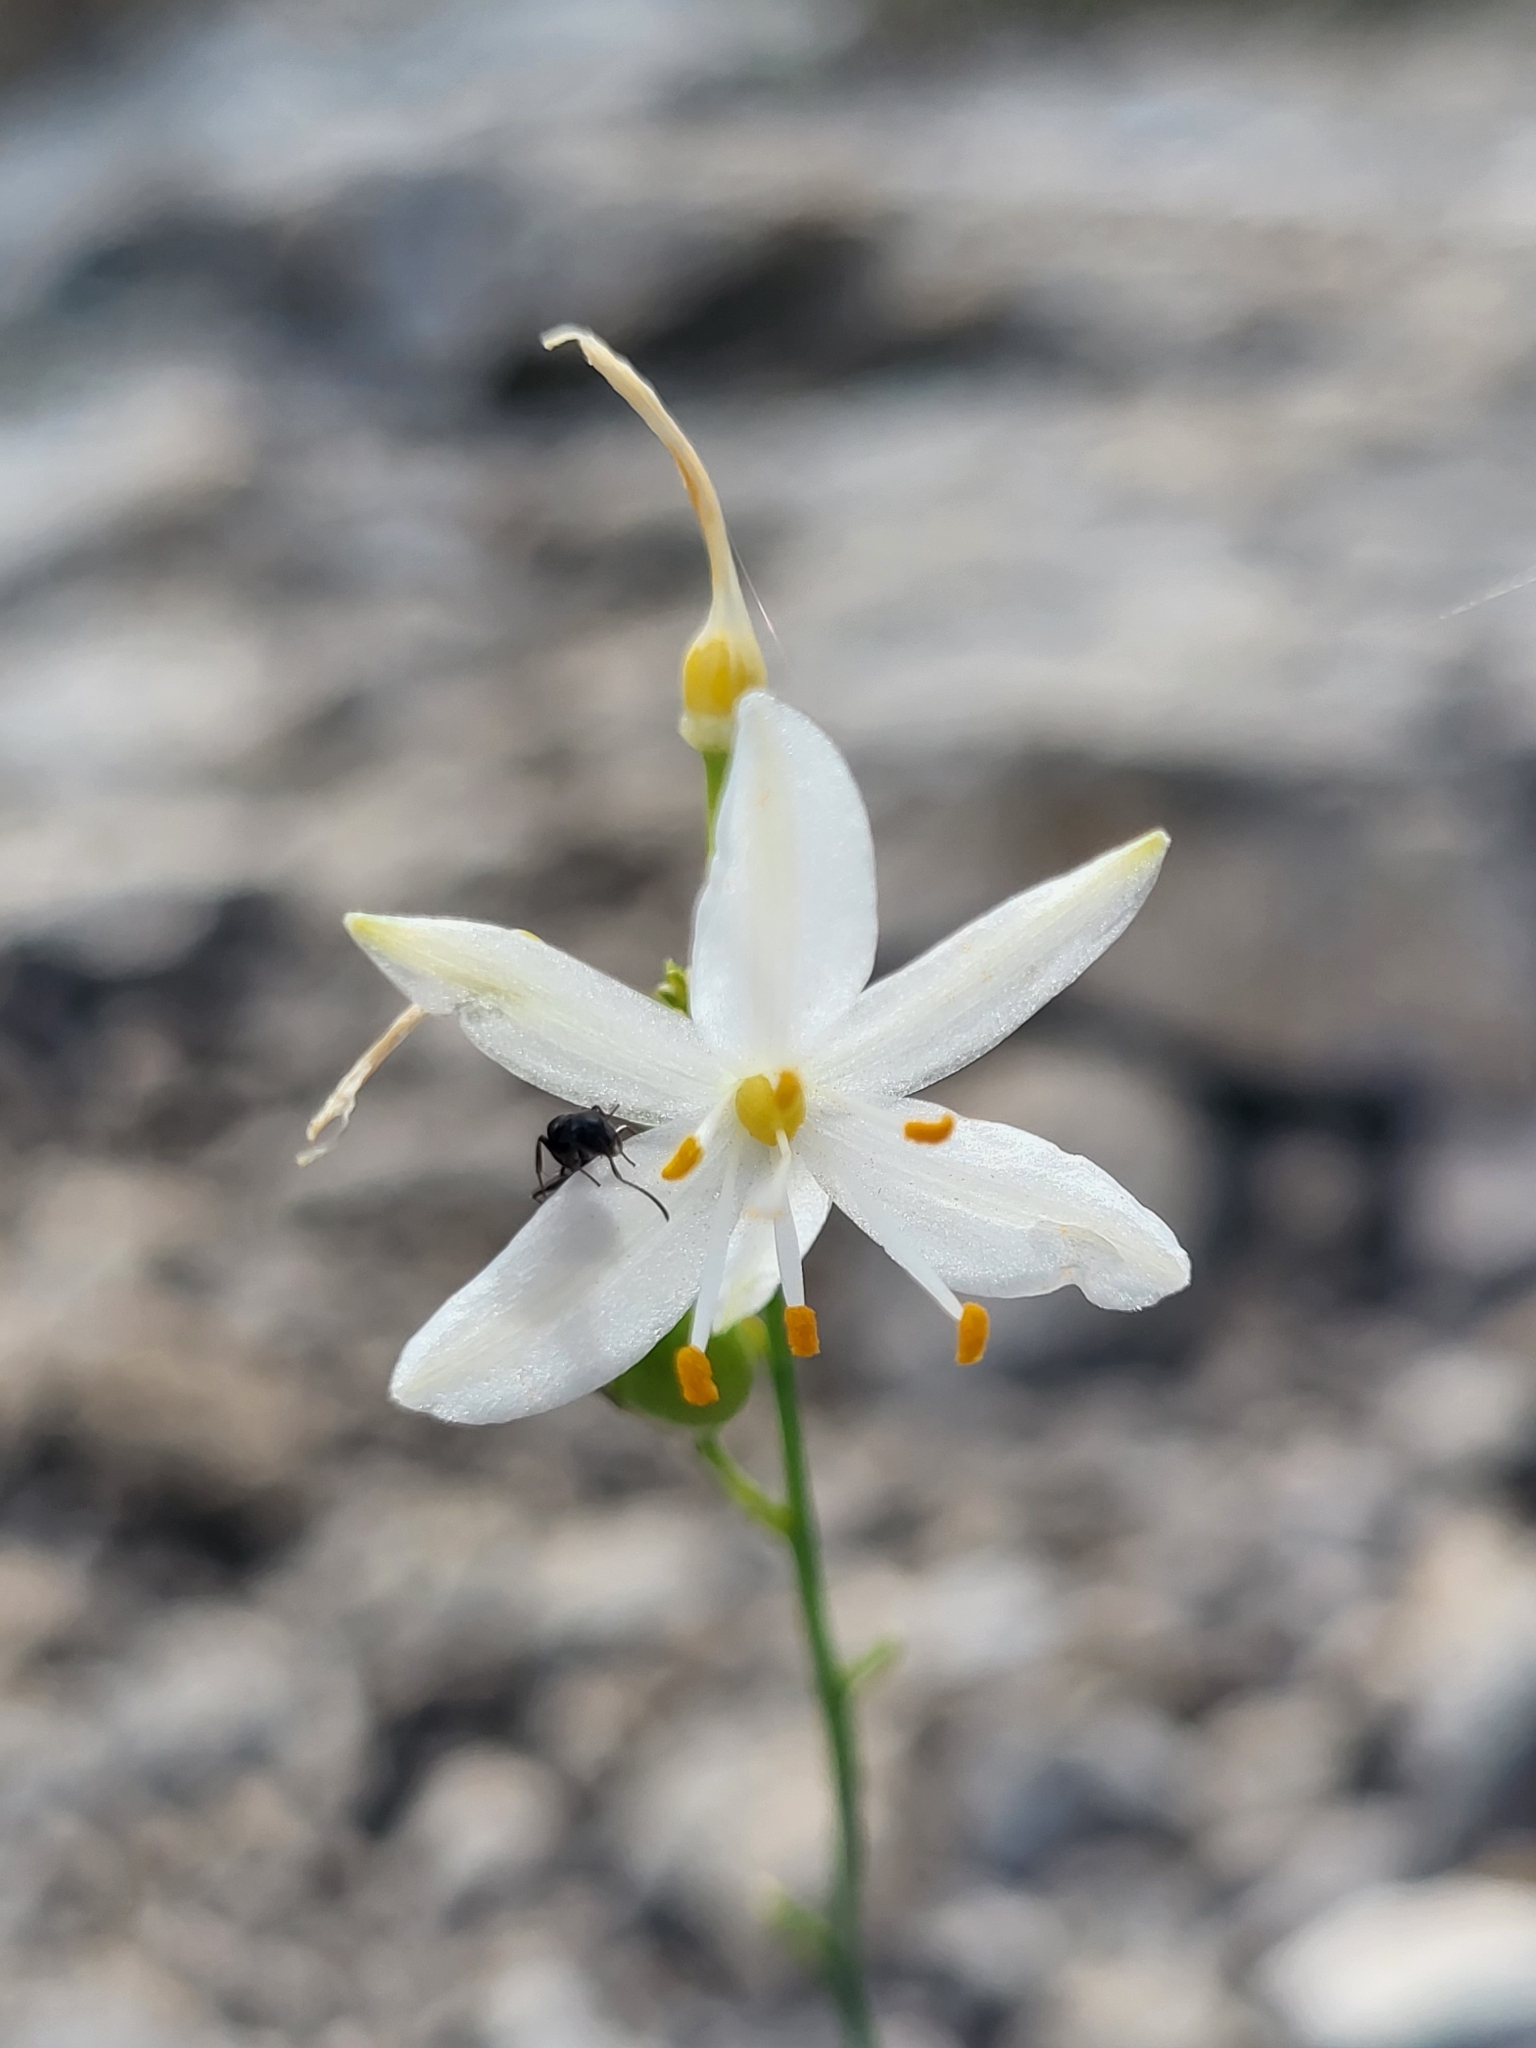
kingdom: Plantae
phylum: Tracheophyta
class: Liliopsida
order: Asparagales
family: Asparagaceae
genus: Anthericum
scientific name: Anthericum ramosum
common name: Branched st. bernard's-lily
